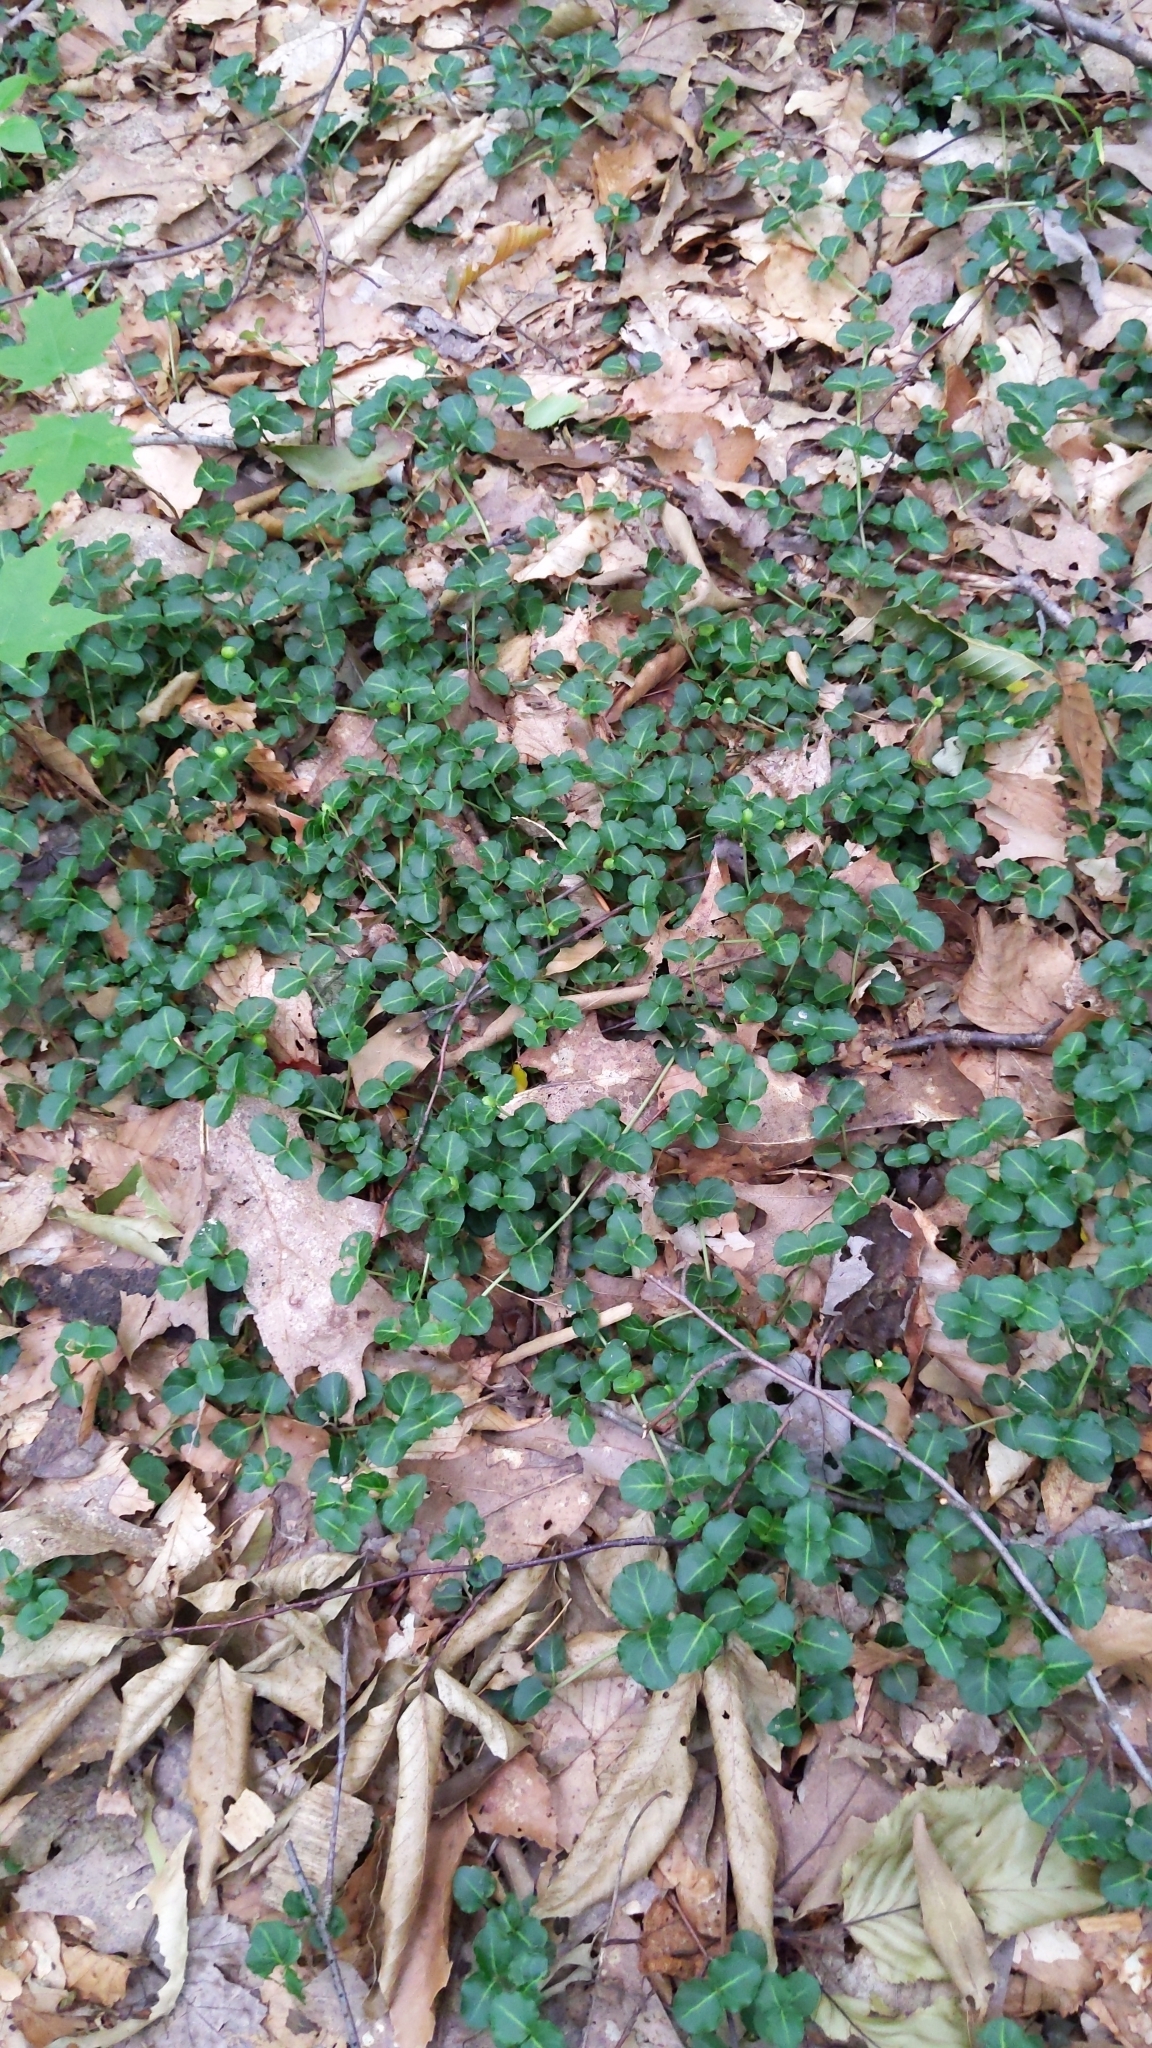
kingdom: Plantae
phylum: Tracheophyta
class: Magnoliopsida
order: Gentianales
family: Rubiaceae
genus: Mitchella
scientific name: Mitchella repens
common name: Partridge-berry
